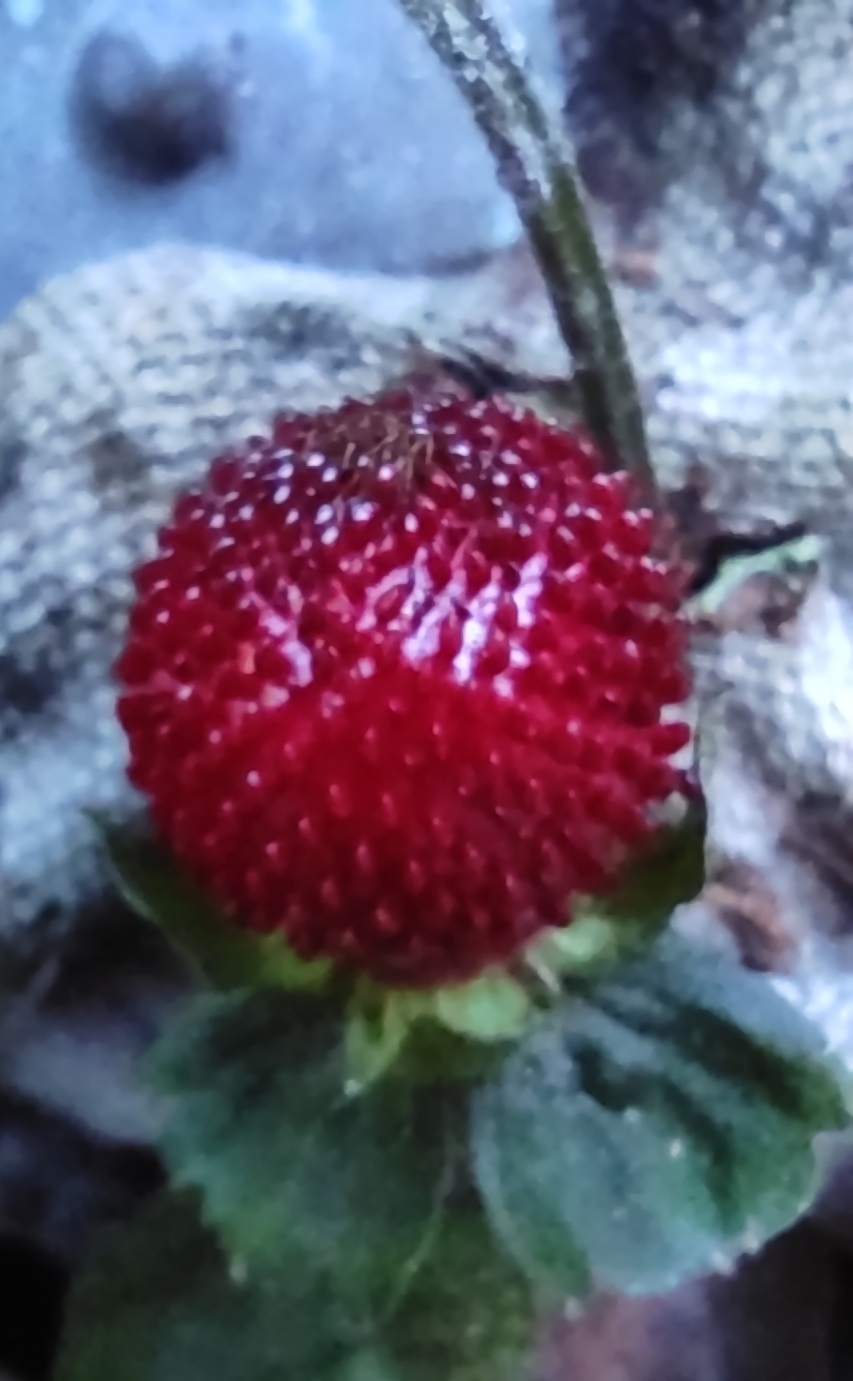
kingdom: Plantae
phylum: Tracheophyta
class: Magnoliopsida
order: Rosales
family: Rosaceae
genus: Potentilla
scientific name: Potentilla indica
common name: Yellow-flowered strawberry
